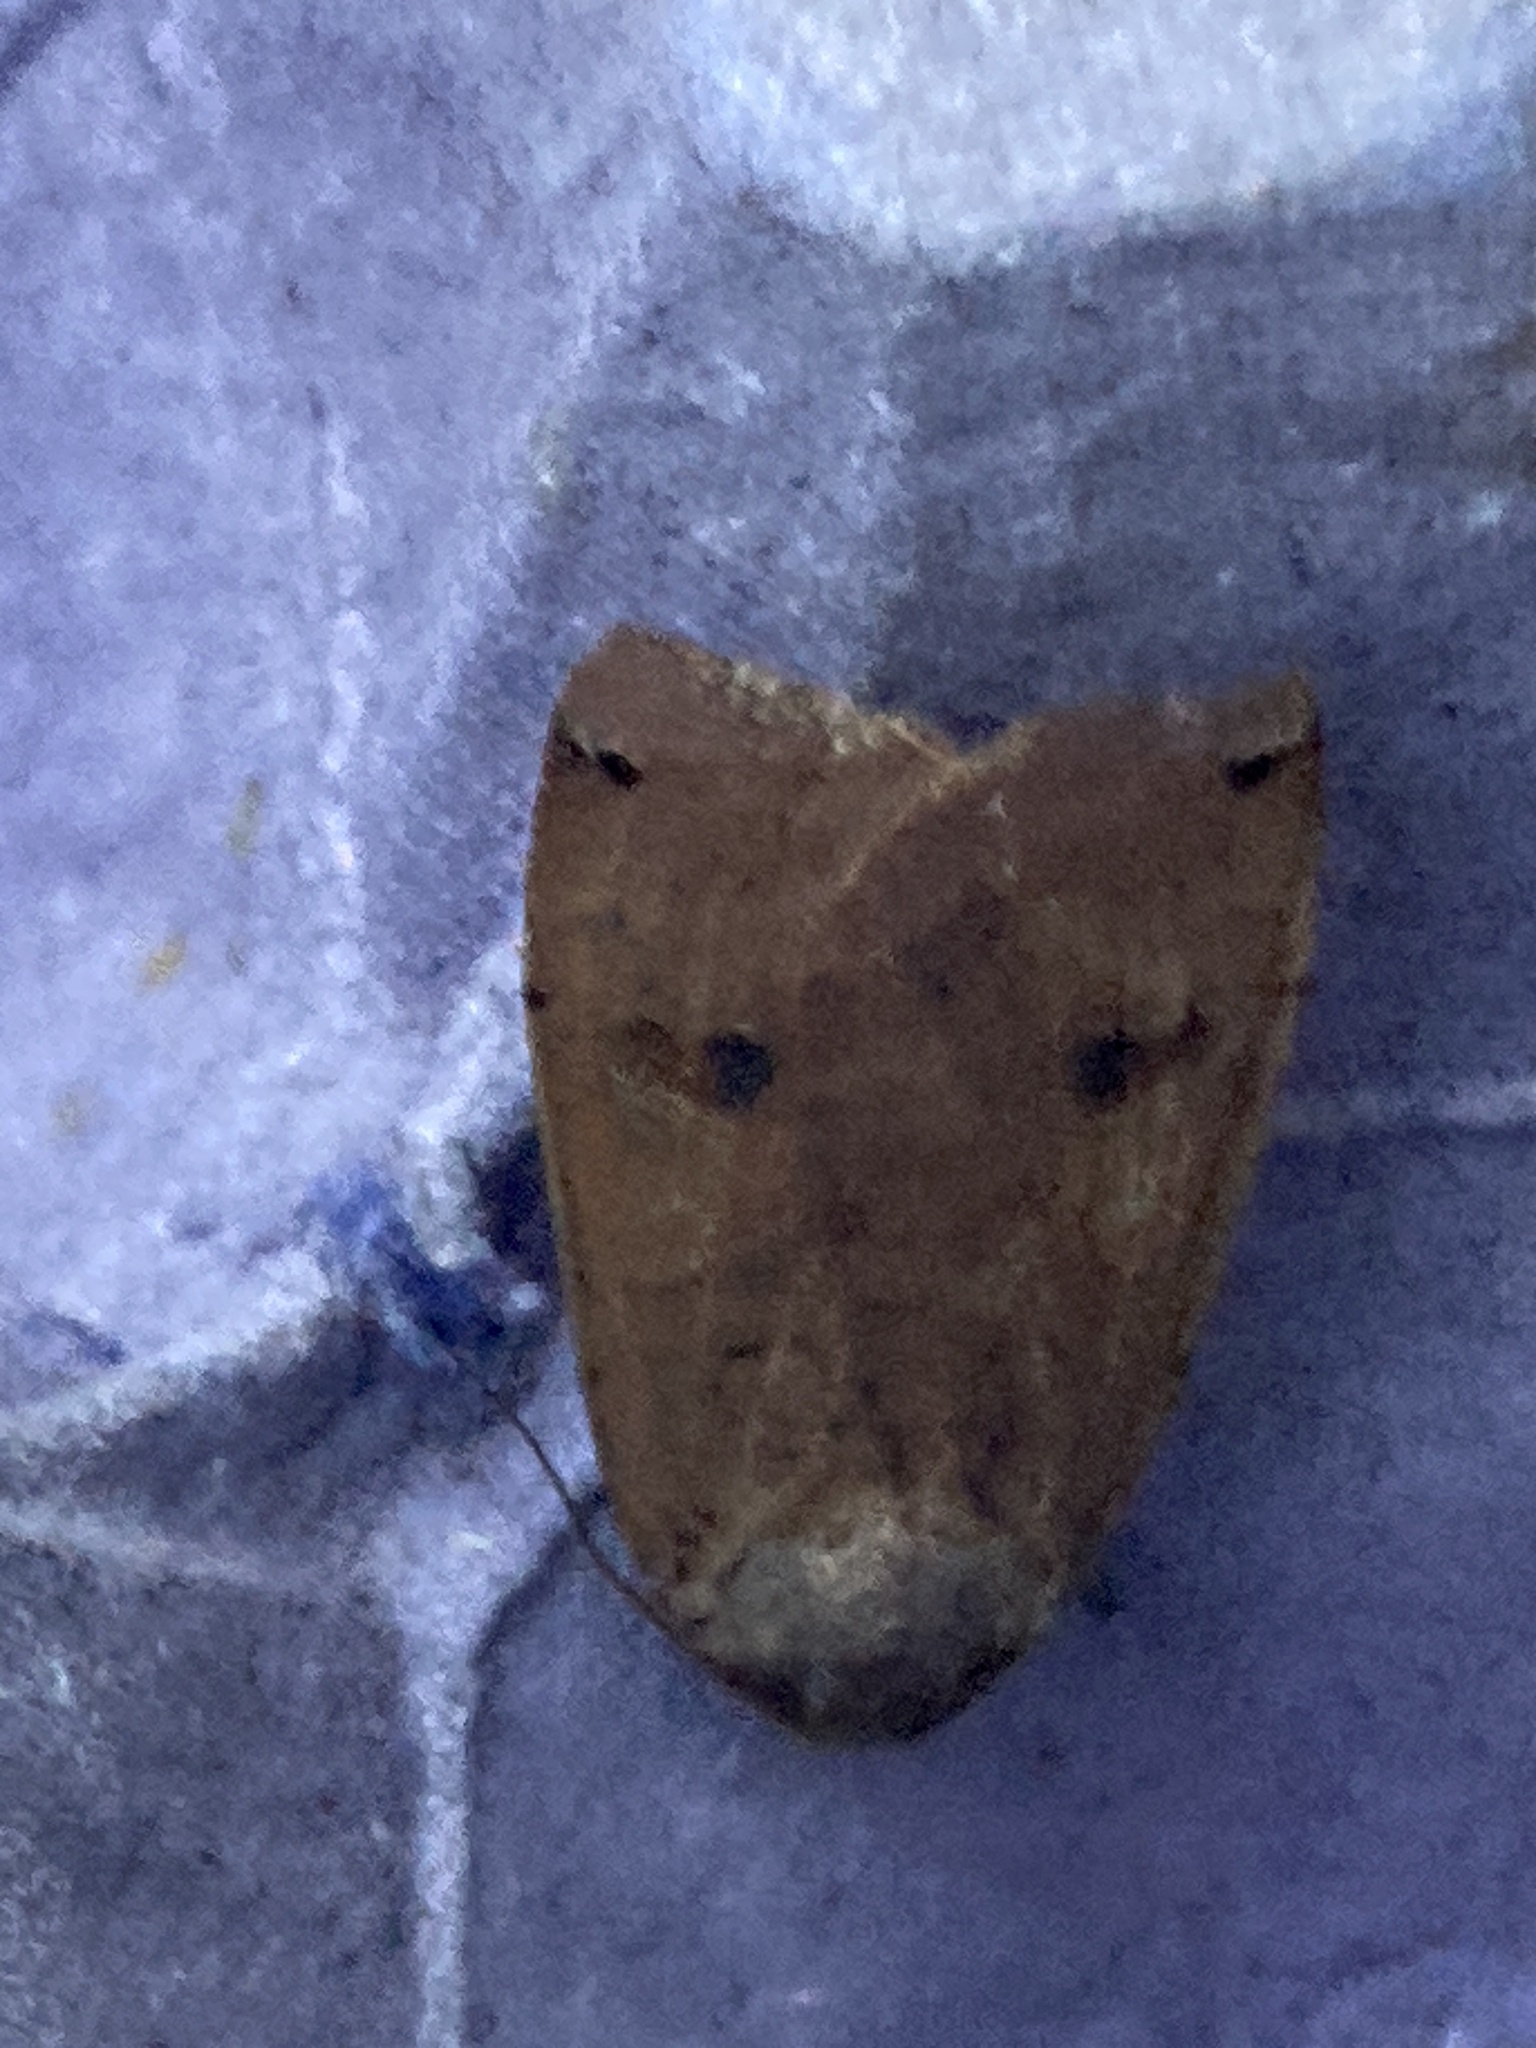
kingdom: Animalia
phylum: Arthropoda
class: Insecta
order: Lepidoptera
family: Noctuidae
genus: Noctua
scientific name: Noctua pronuba
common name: Large yellow underwing
